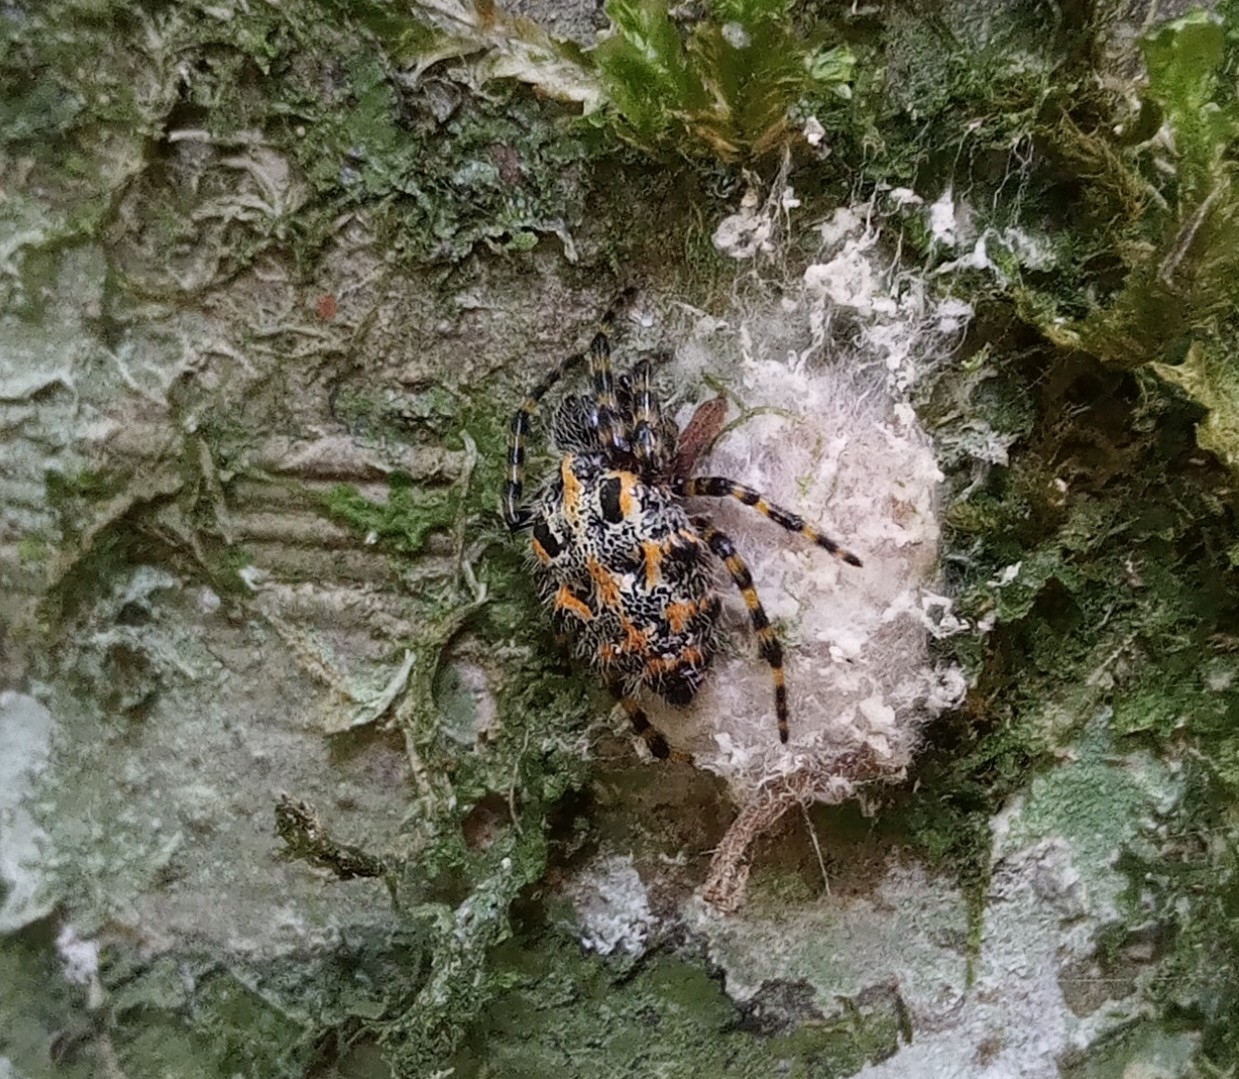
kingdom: Animalia
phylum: Arthropoda
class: Arachnida
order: Araneae
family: Araneidae
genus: Alpaida
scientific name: Alpaida alticeps
